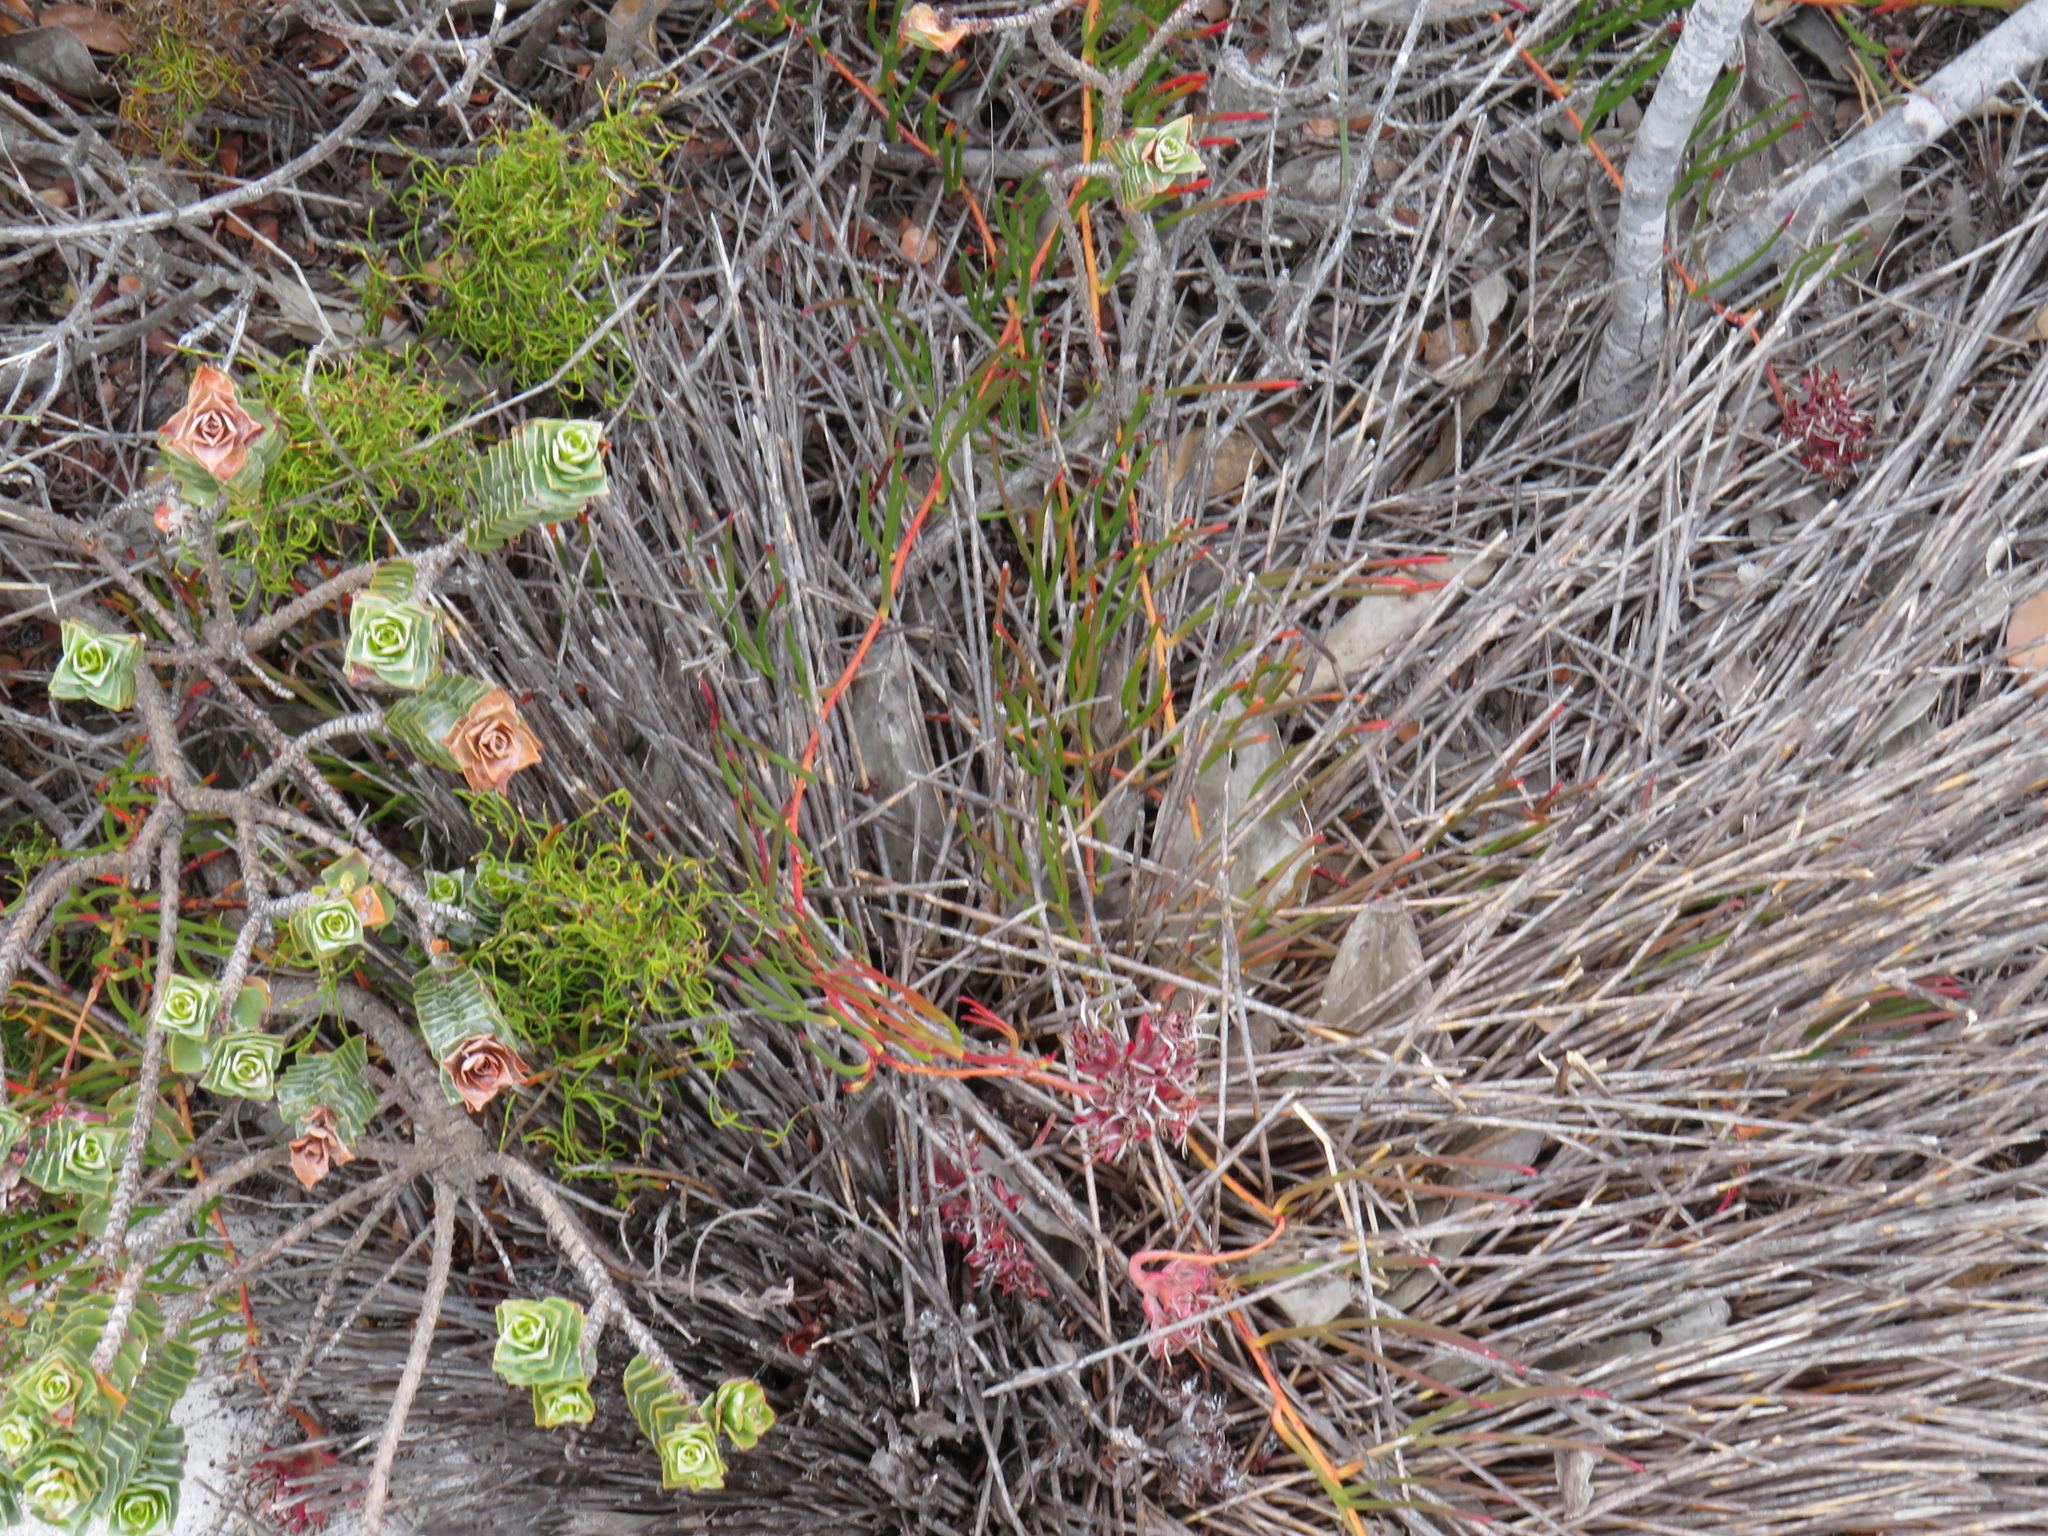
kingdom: Plantae
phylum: Tracheophyta
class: Magnoliopsida
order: Proteales
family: Proteaceae
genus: Serruria
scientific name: Serruria decumbens
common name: Peninsula spiderhead
